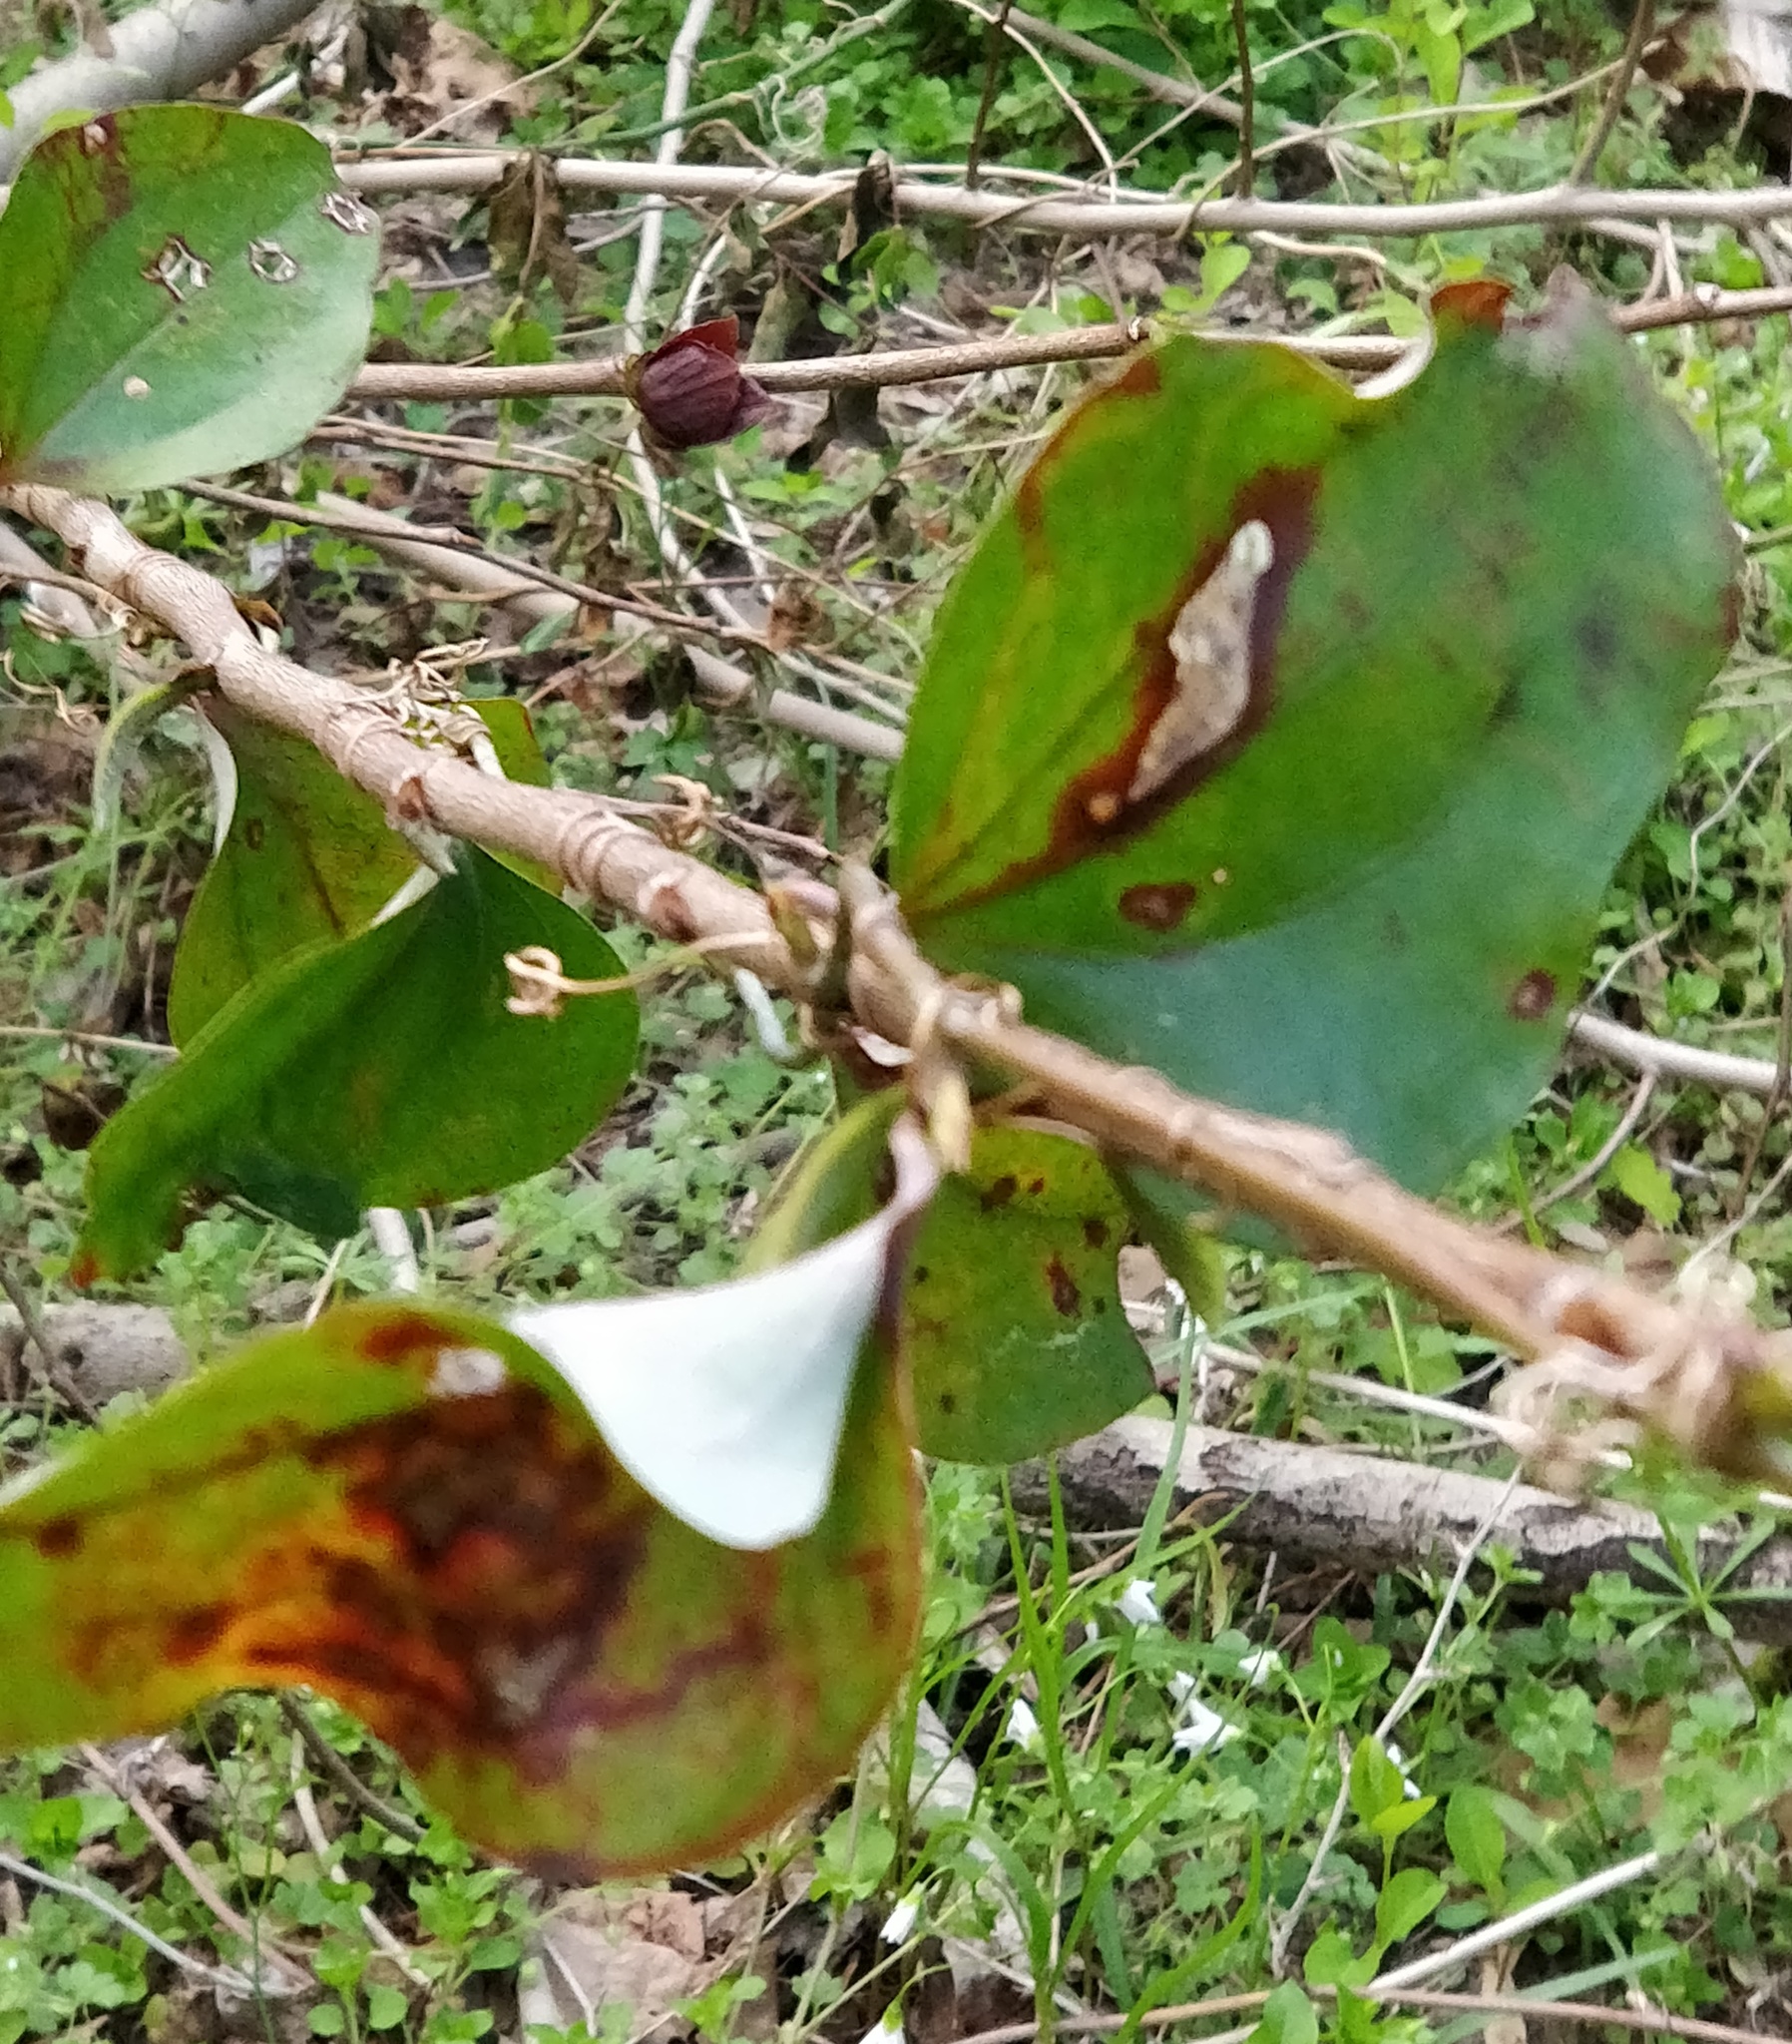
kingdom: Plantae
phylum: Tracheophyta
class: Liliopsida
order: Liliales
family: Smilacaceae
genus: Smilax
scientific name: Smilax rotundifolia
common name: Bullbriar
